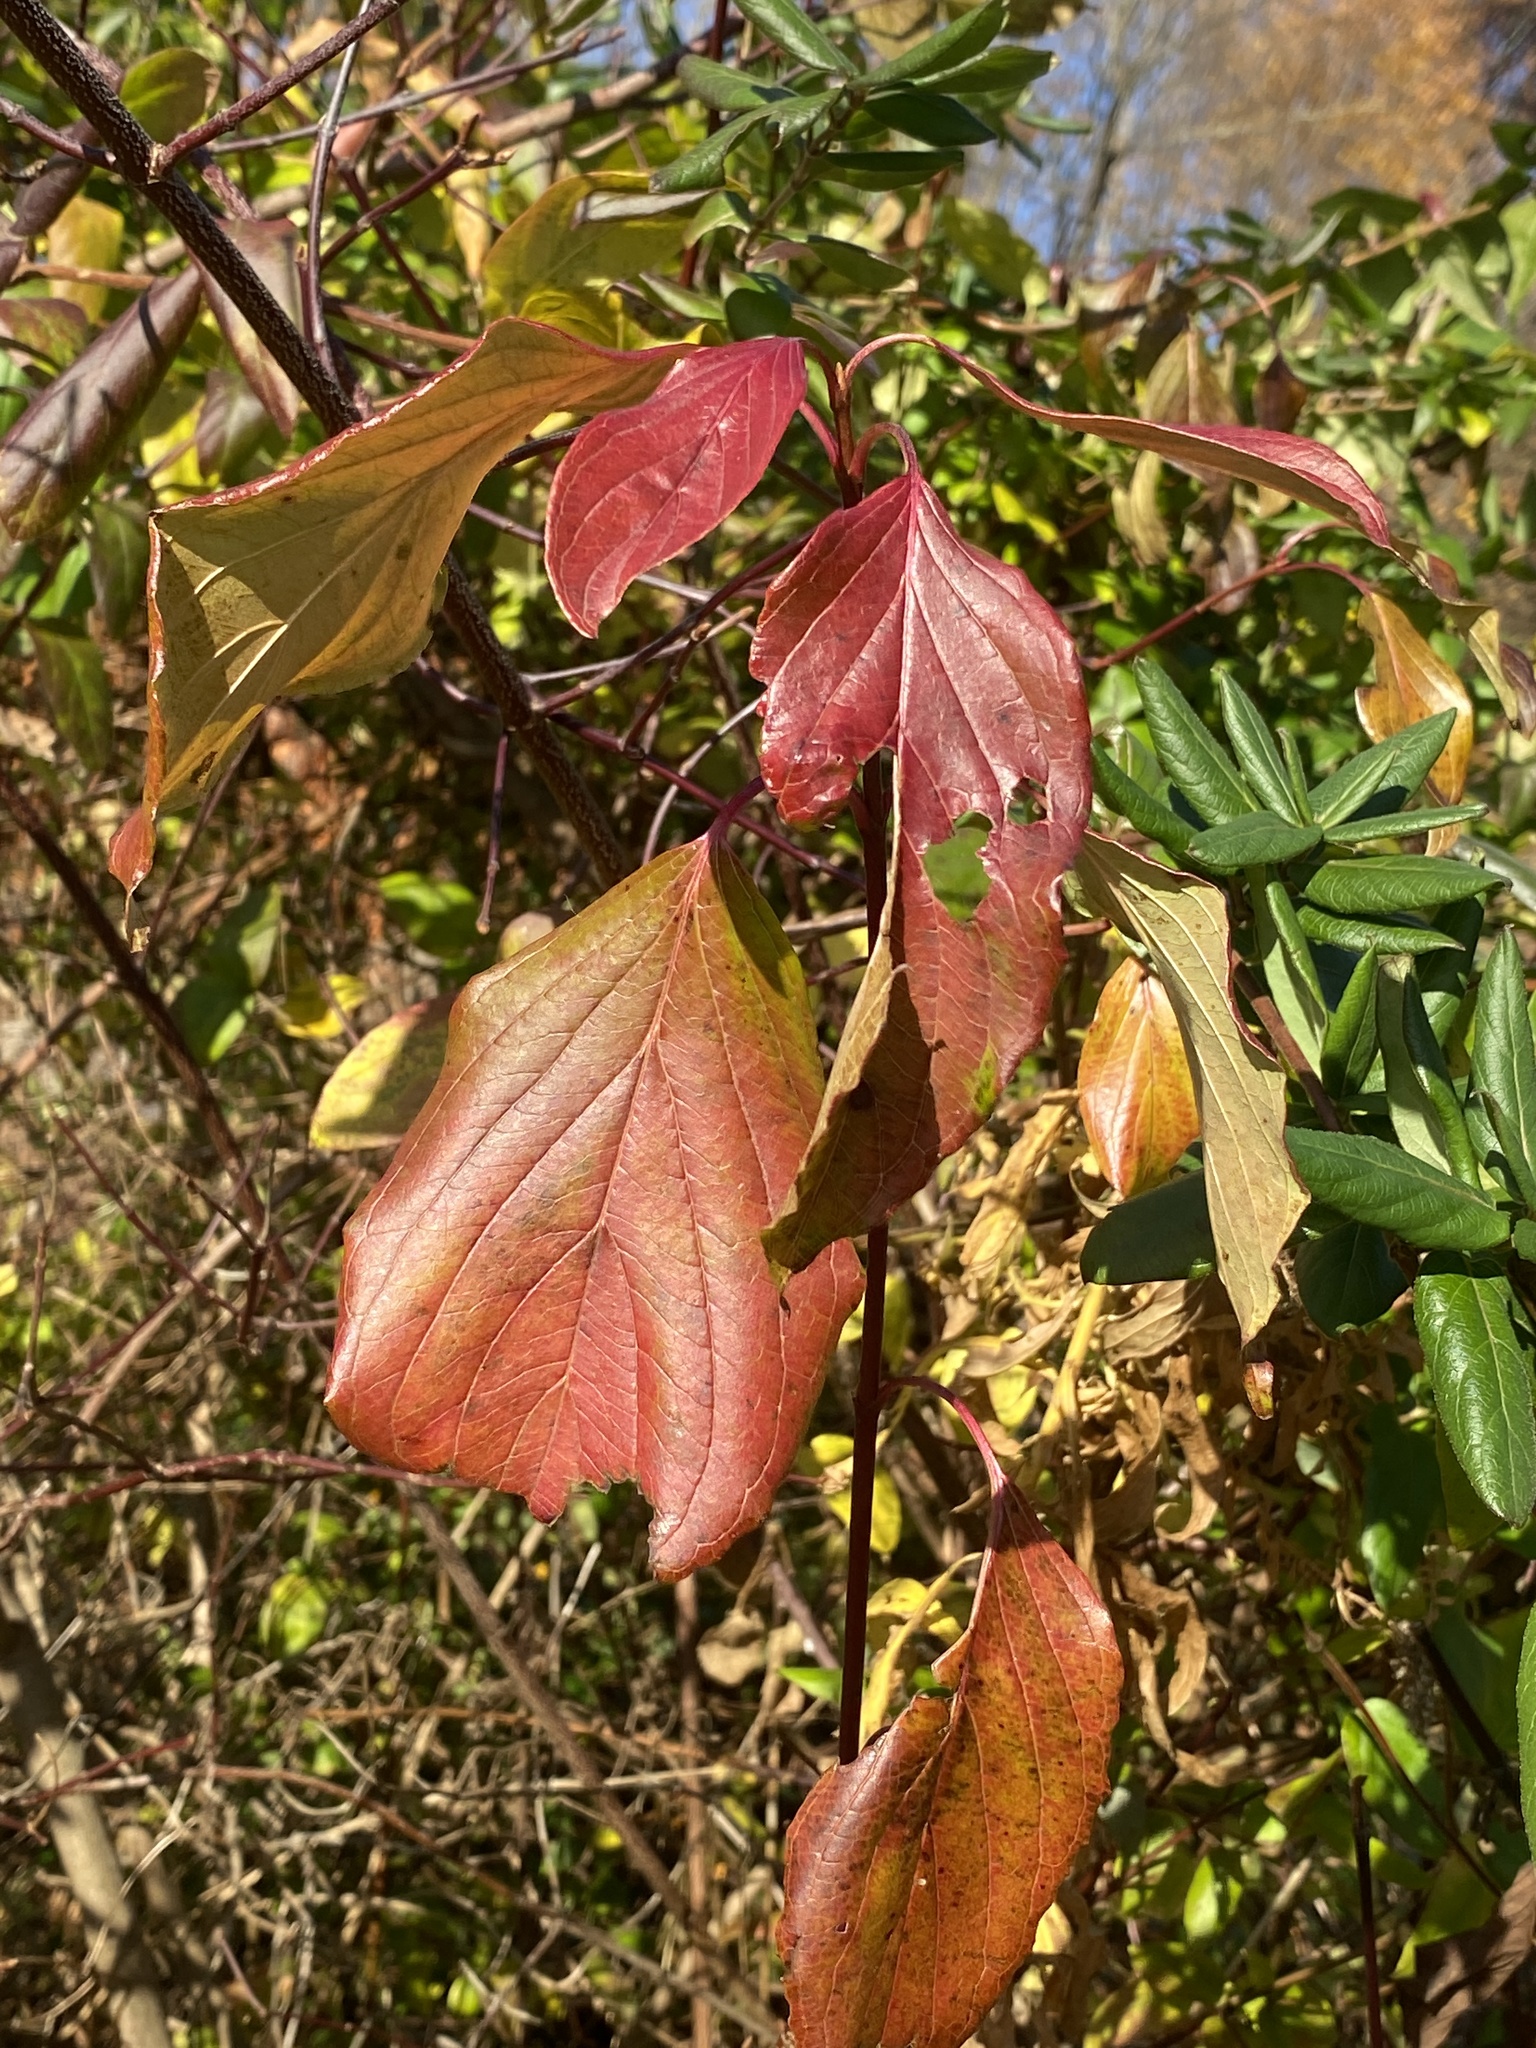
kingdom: Plantae
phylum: Tracheophyta
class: Magnoliopsida
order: Cornales
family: Cornaceae
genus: Cornus
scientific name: Cornus amomum
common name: Silky dogwood
